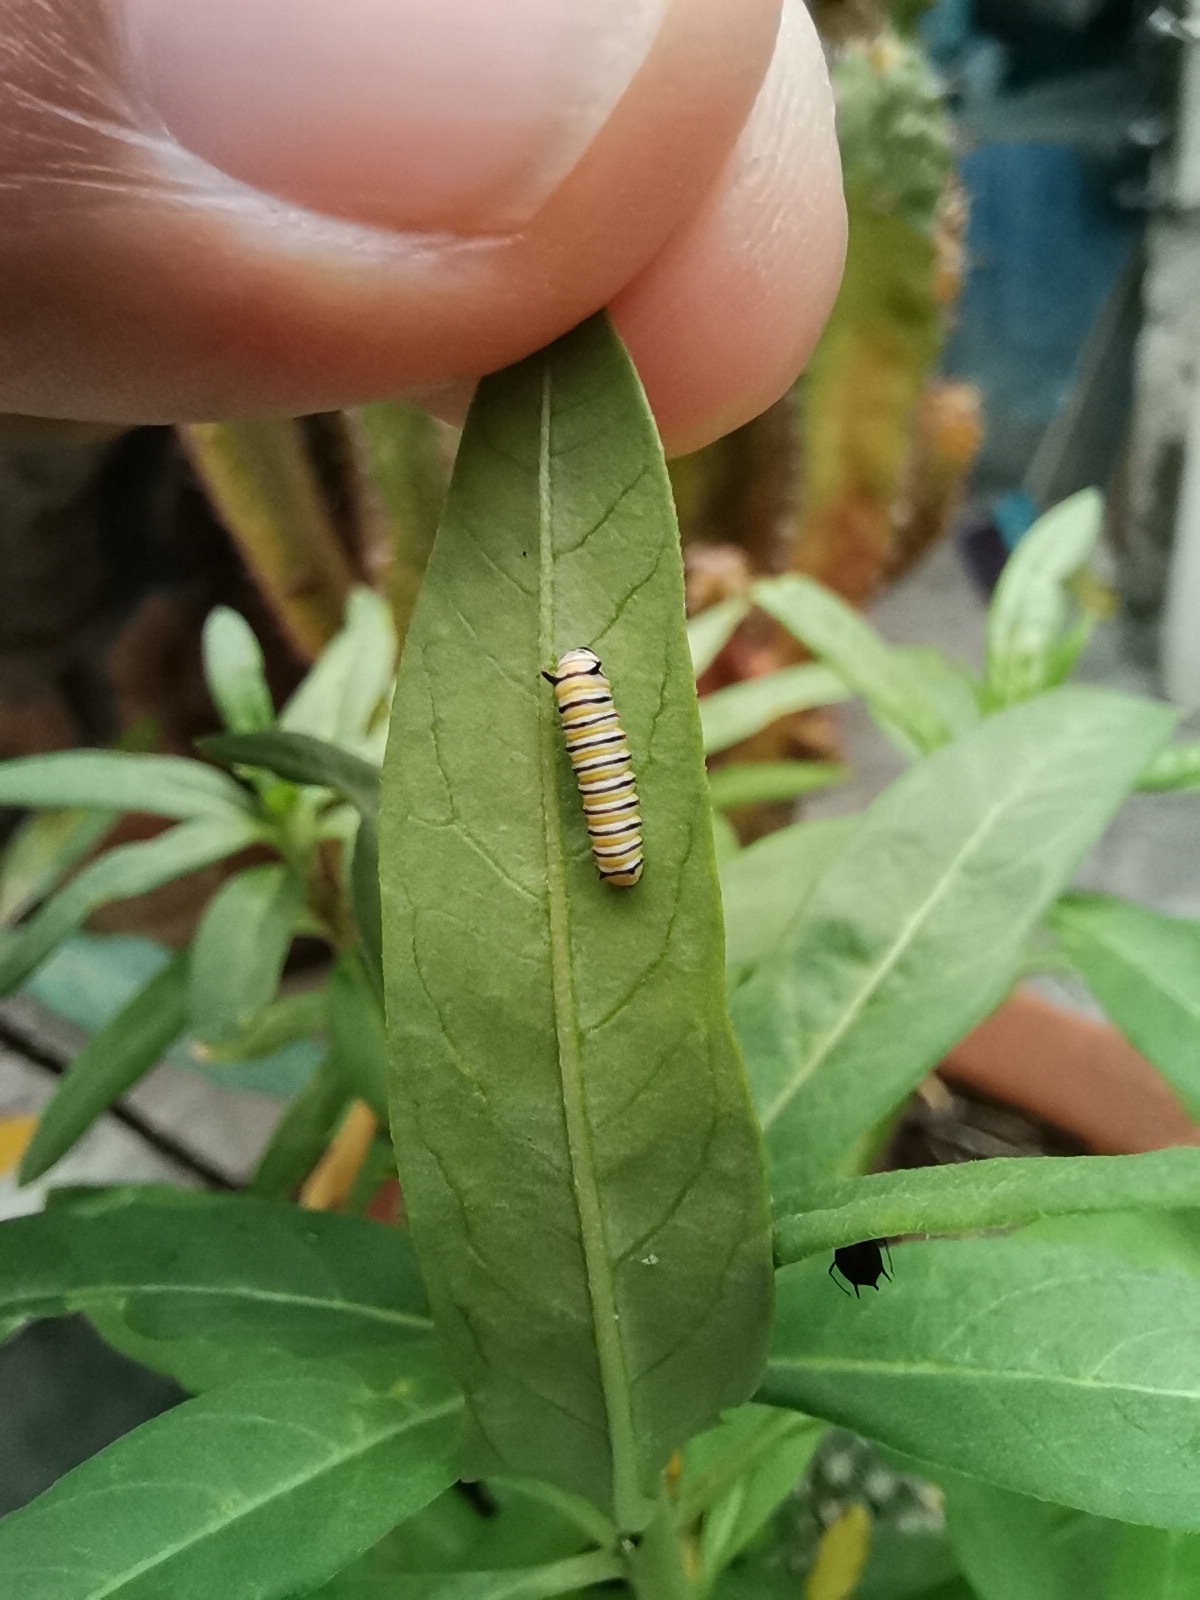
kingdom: Animalia
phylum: Arthropoda
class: Insecta
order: Lepidoptera
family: Nymphalidae
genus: Danaus
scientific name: Danaus plexippus
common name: Monarch
